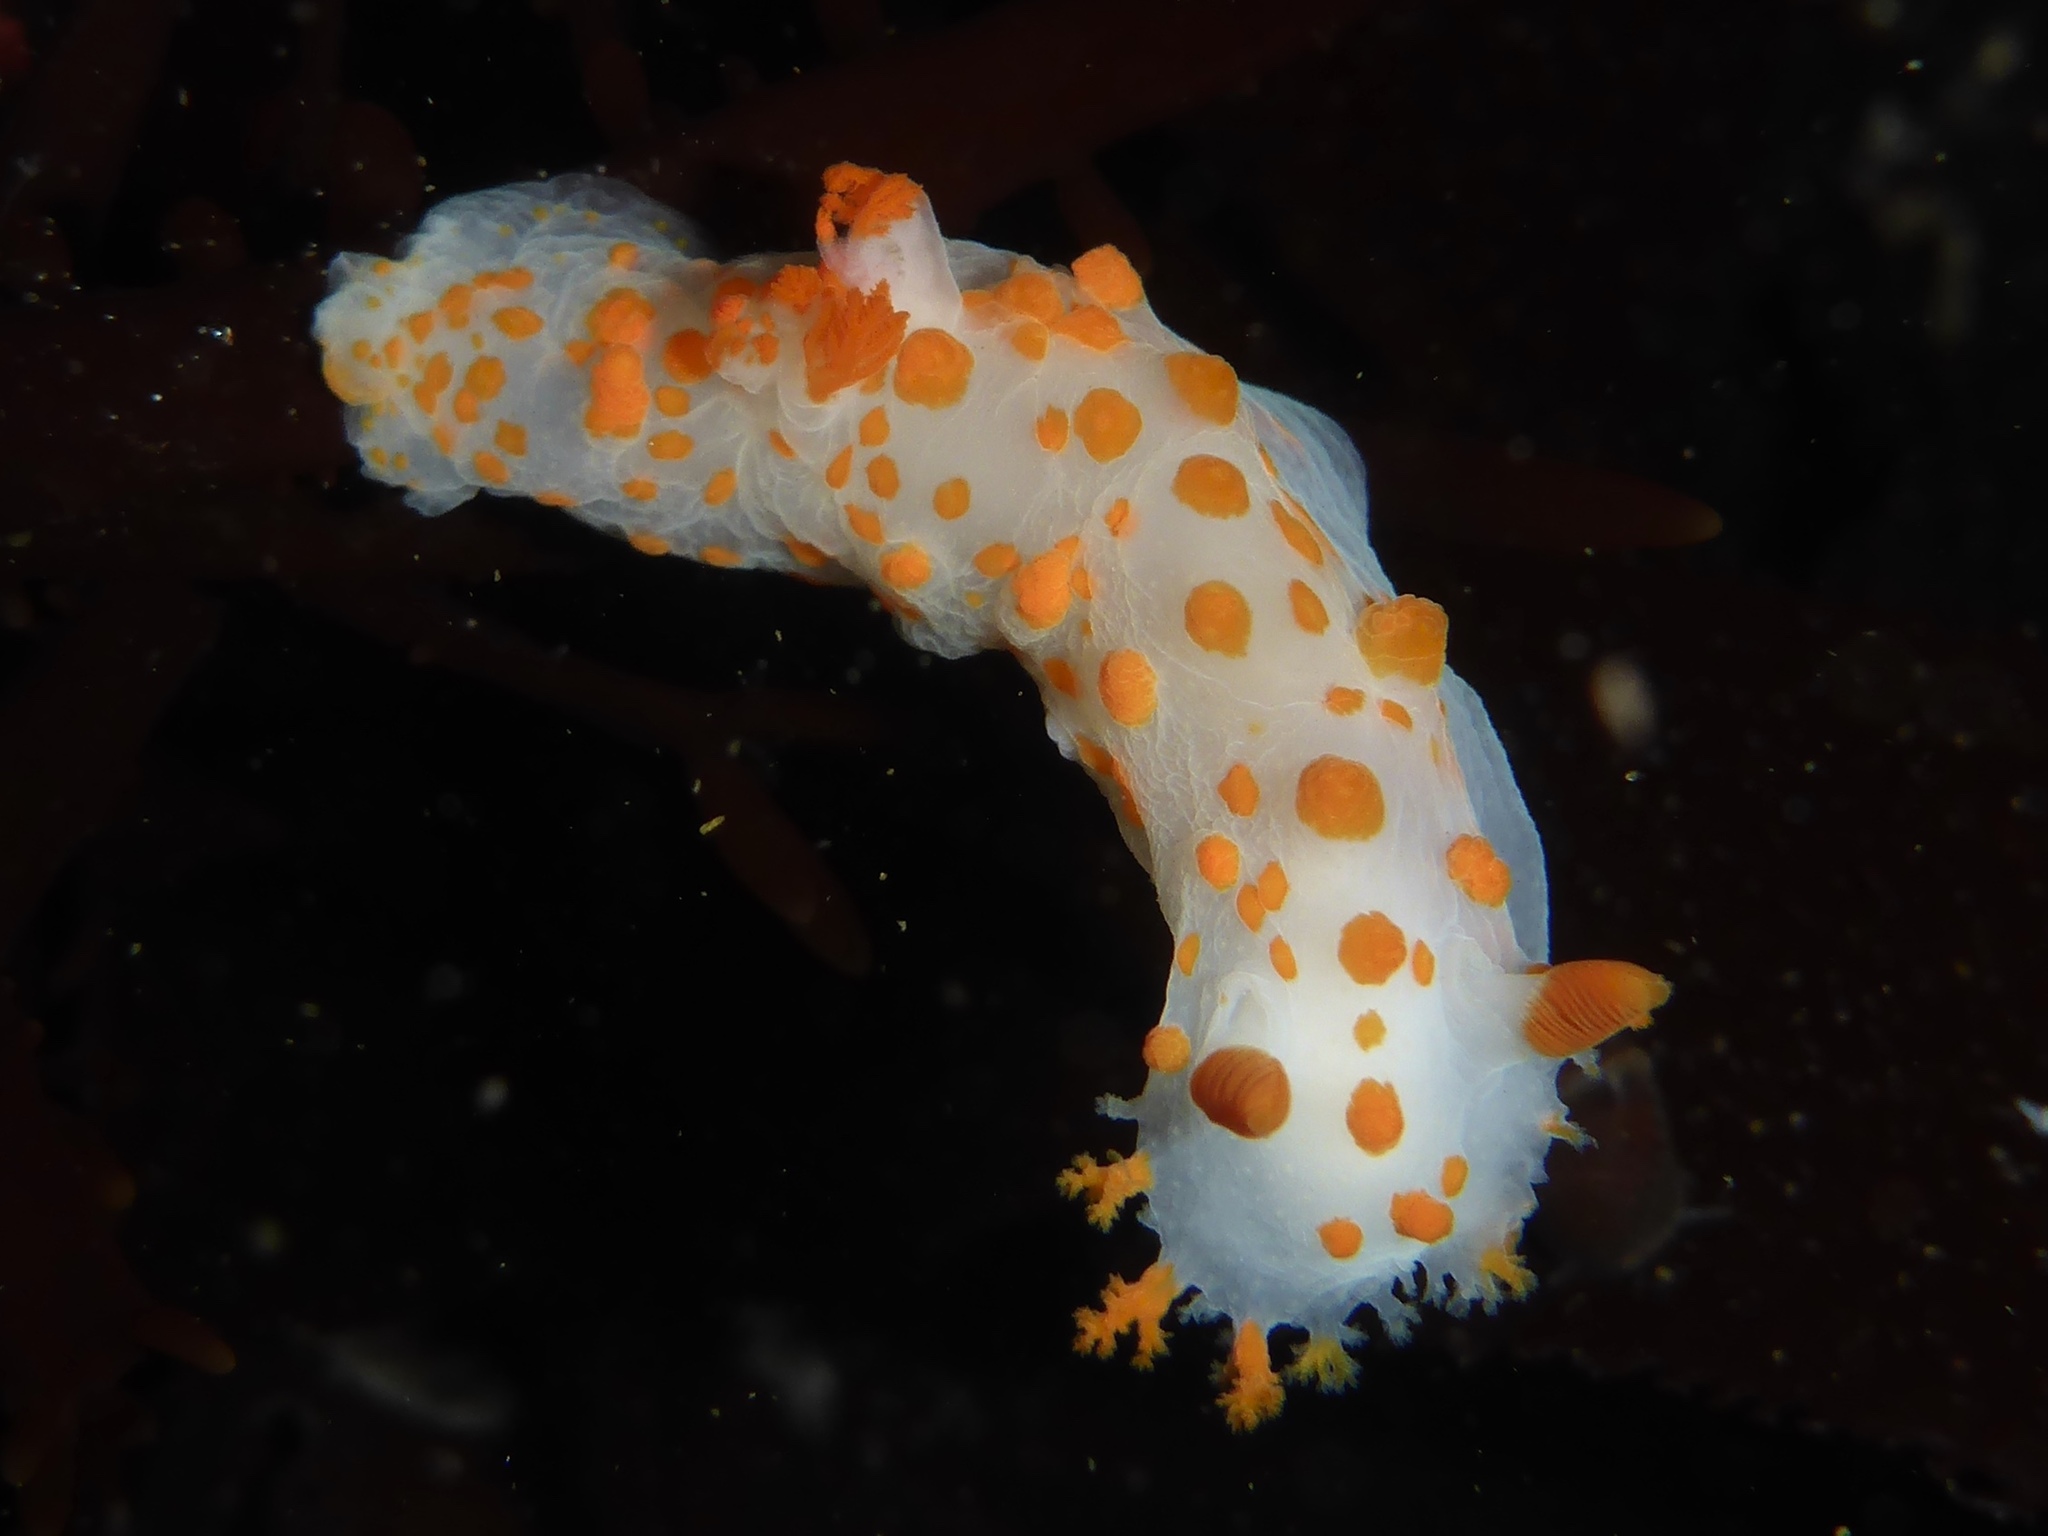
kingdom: Animalia
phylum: Mollusca
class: Gastropoda
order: Nudibranchia
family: Polyceridae
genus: Triopha
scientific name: Triopha catalinae
